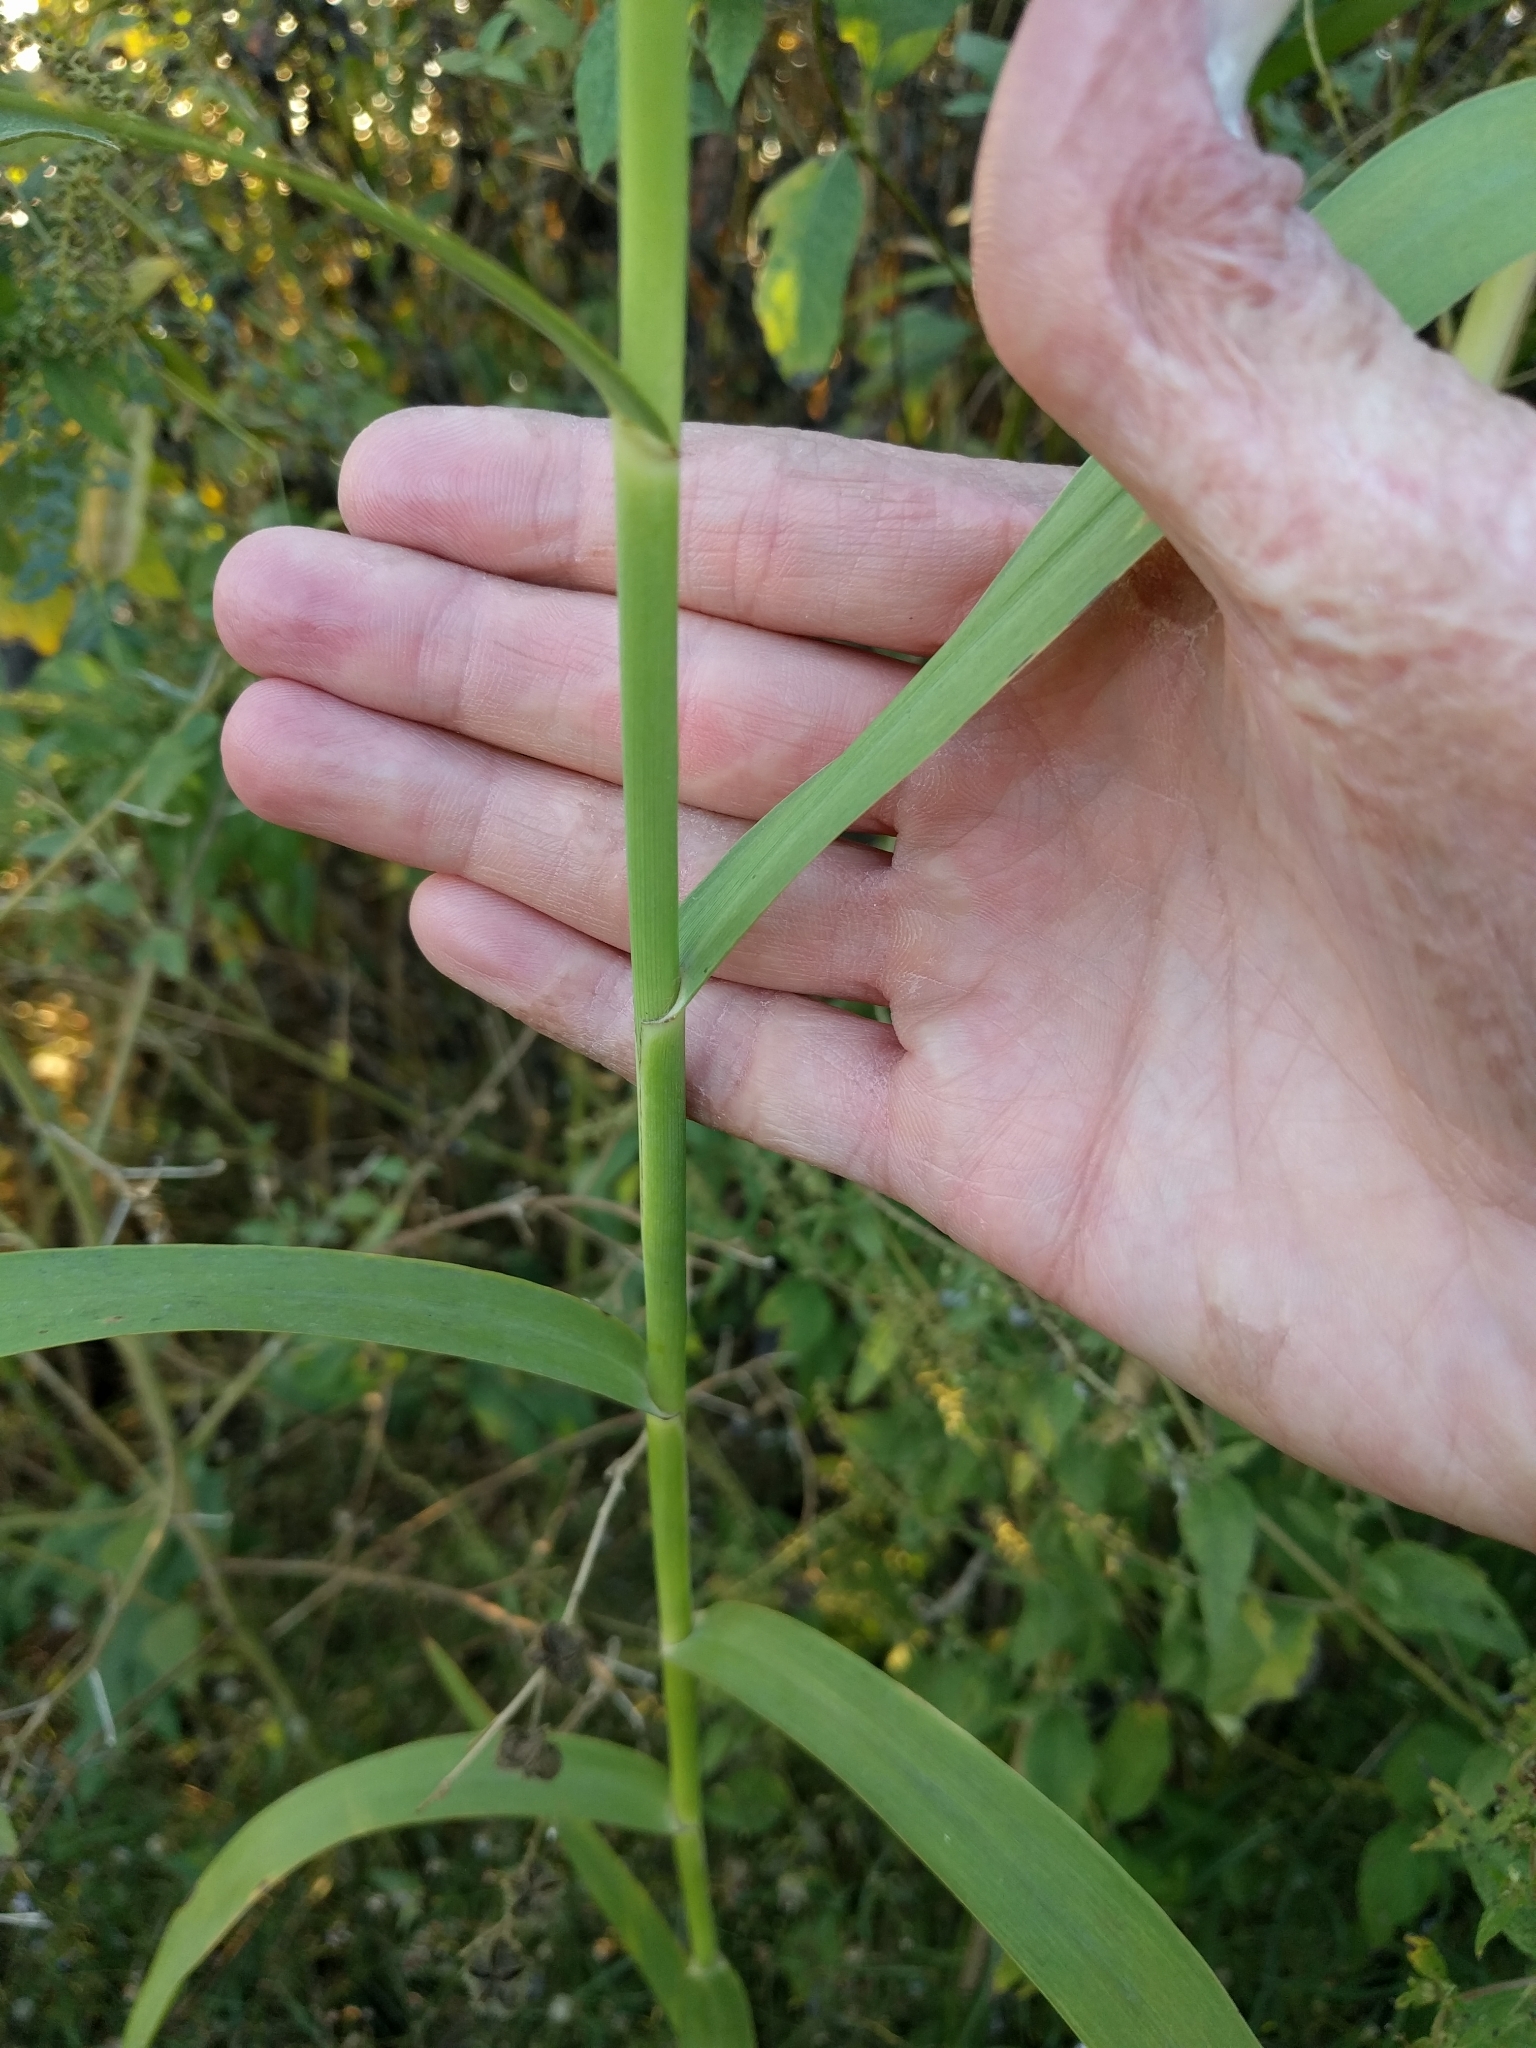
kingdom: Plantae
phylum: Tracheophyta
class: Liliopsida
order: Poales
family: Poaceae
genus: Phragmites
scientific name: Phragmites australis
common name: Common reed
